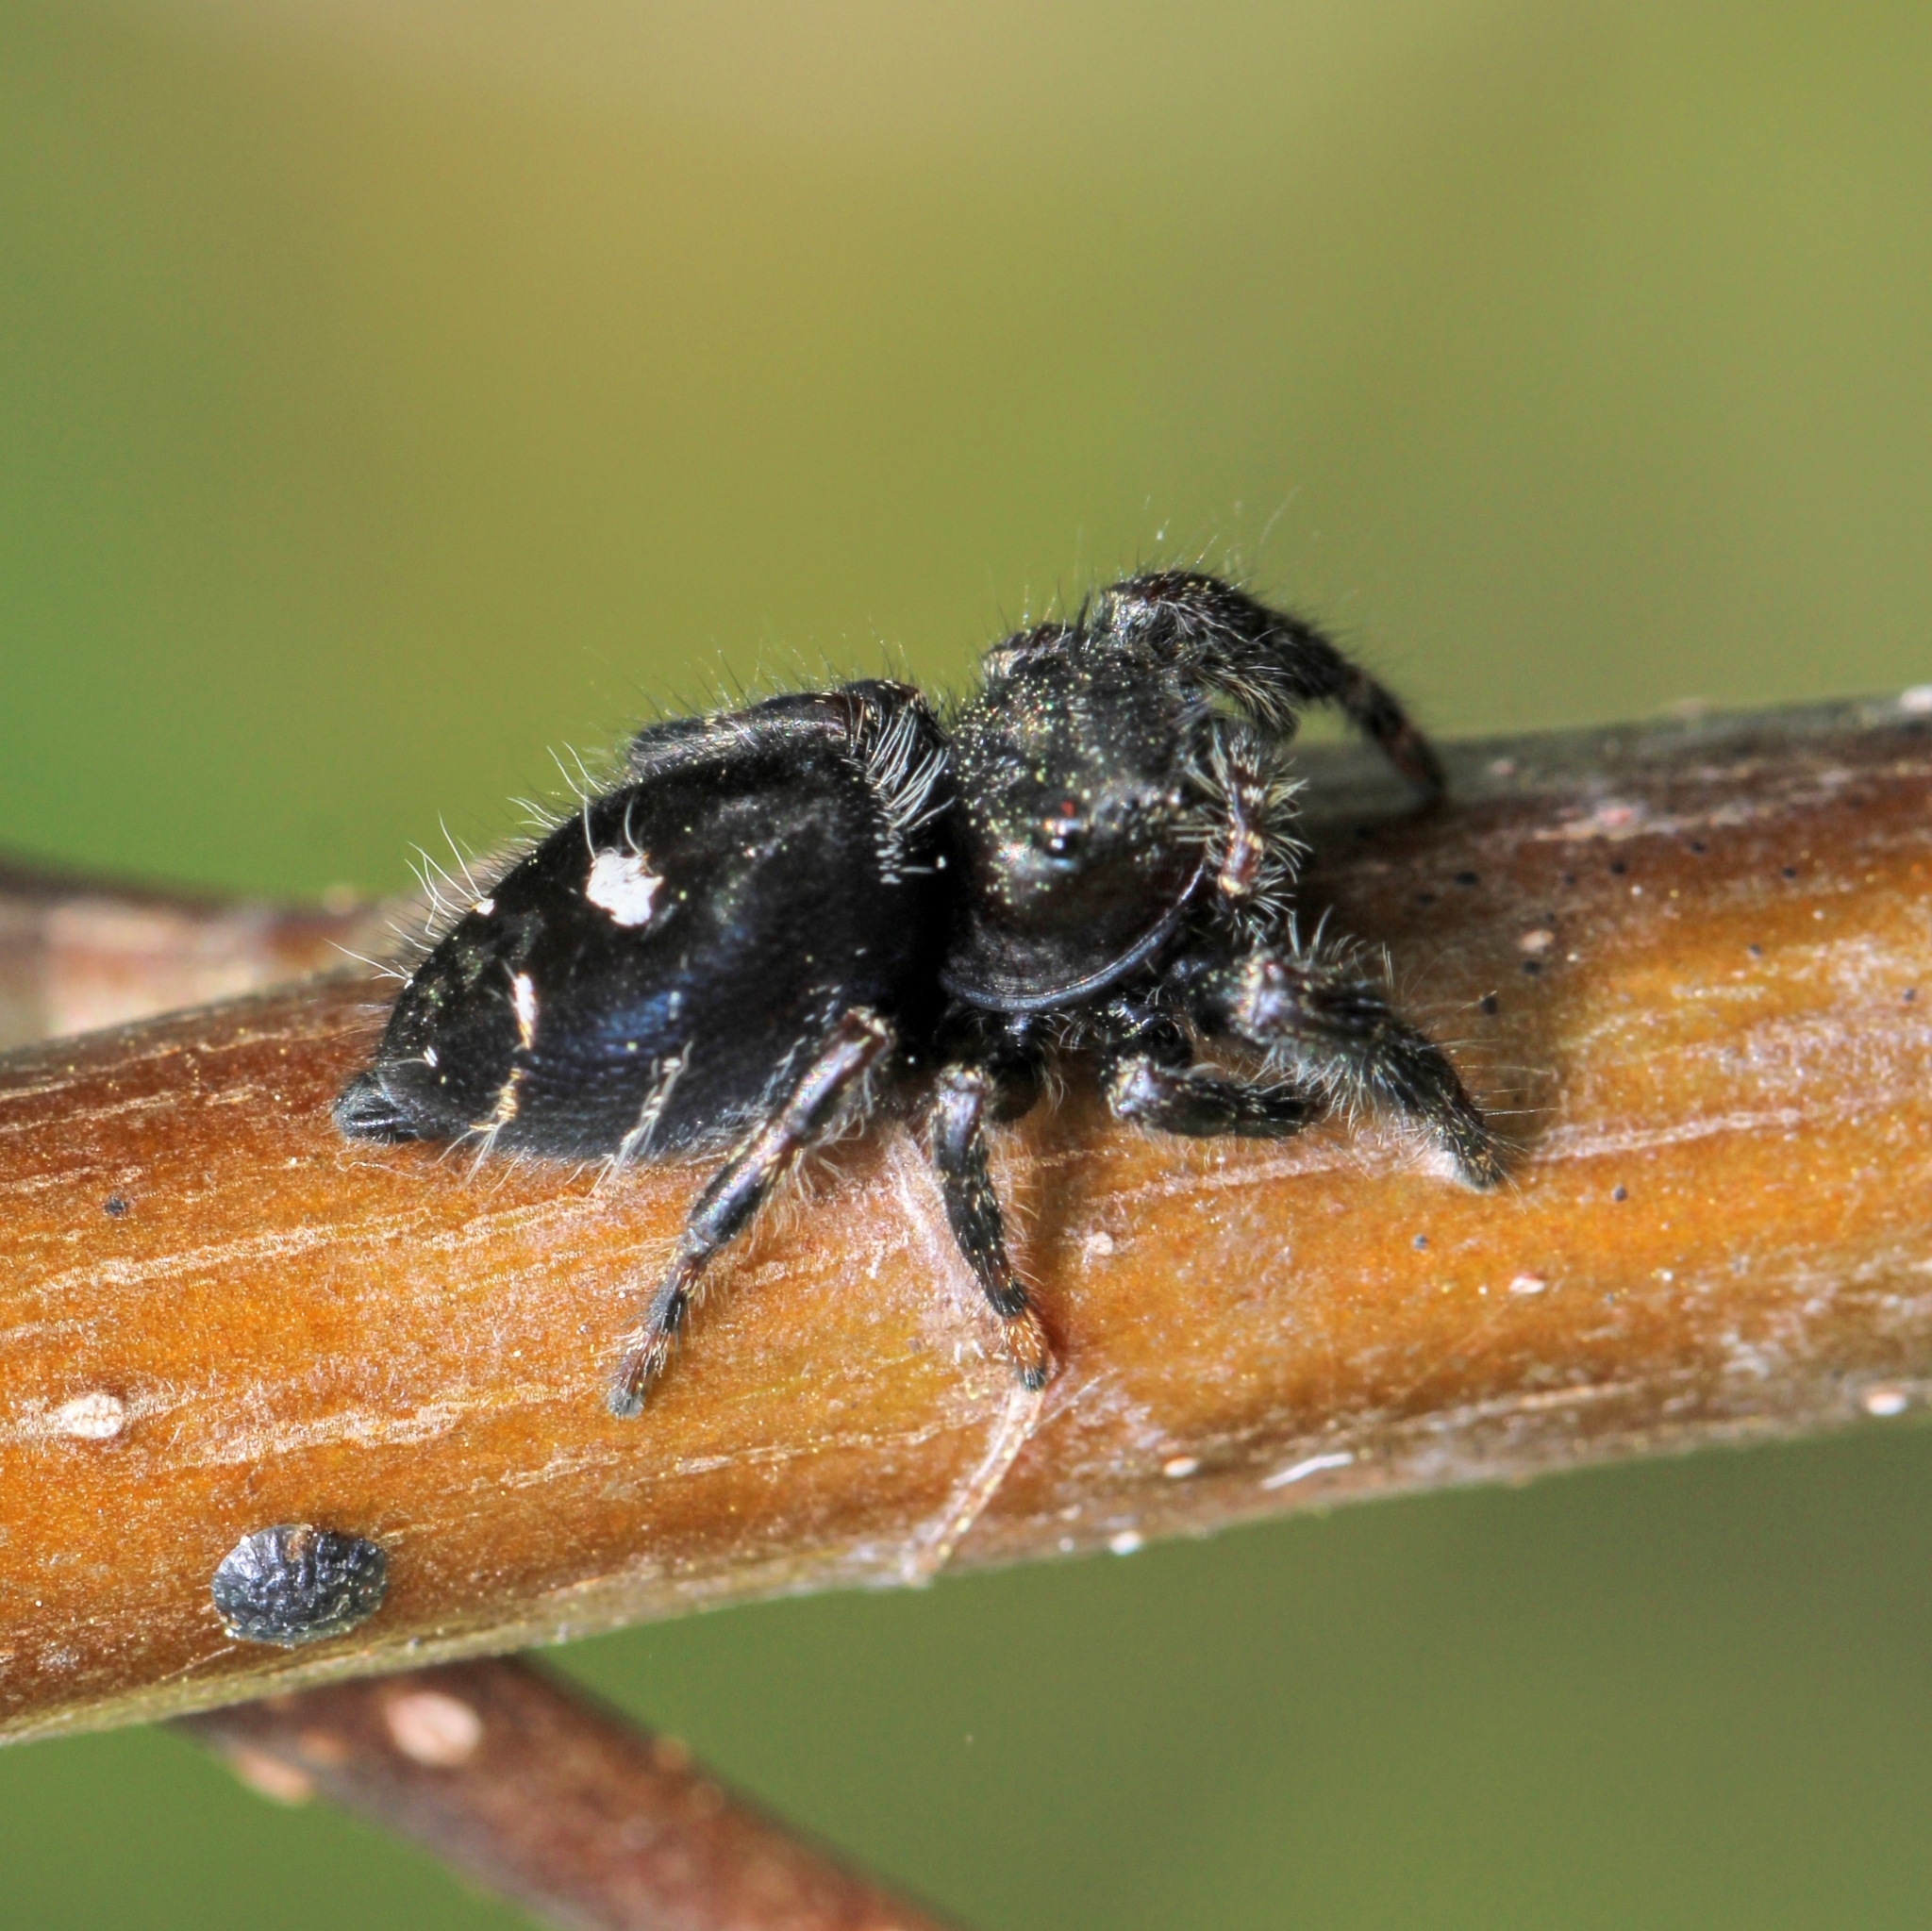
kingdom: Animalia
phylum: Arthropoda
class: Arachnida
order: Araneae
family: Salticidae
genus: Phidippus
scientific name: Phidippus audax
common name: Bold jumper
